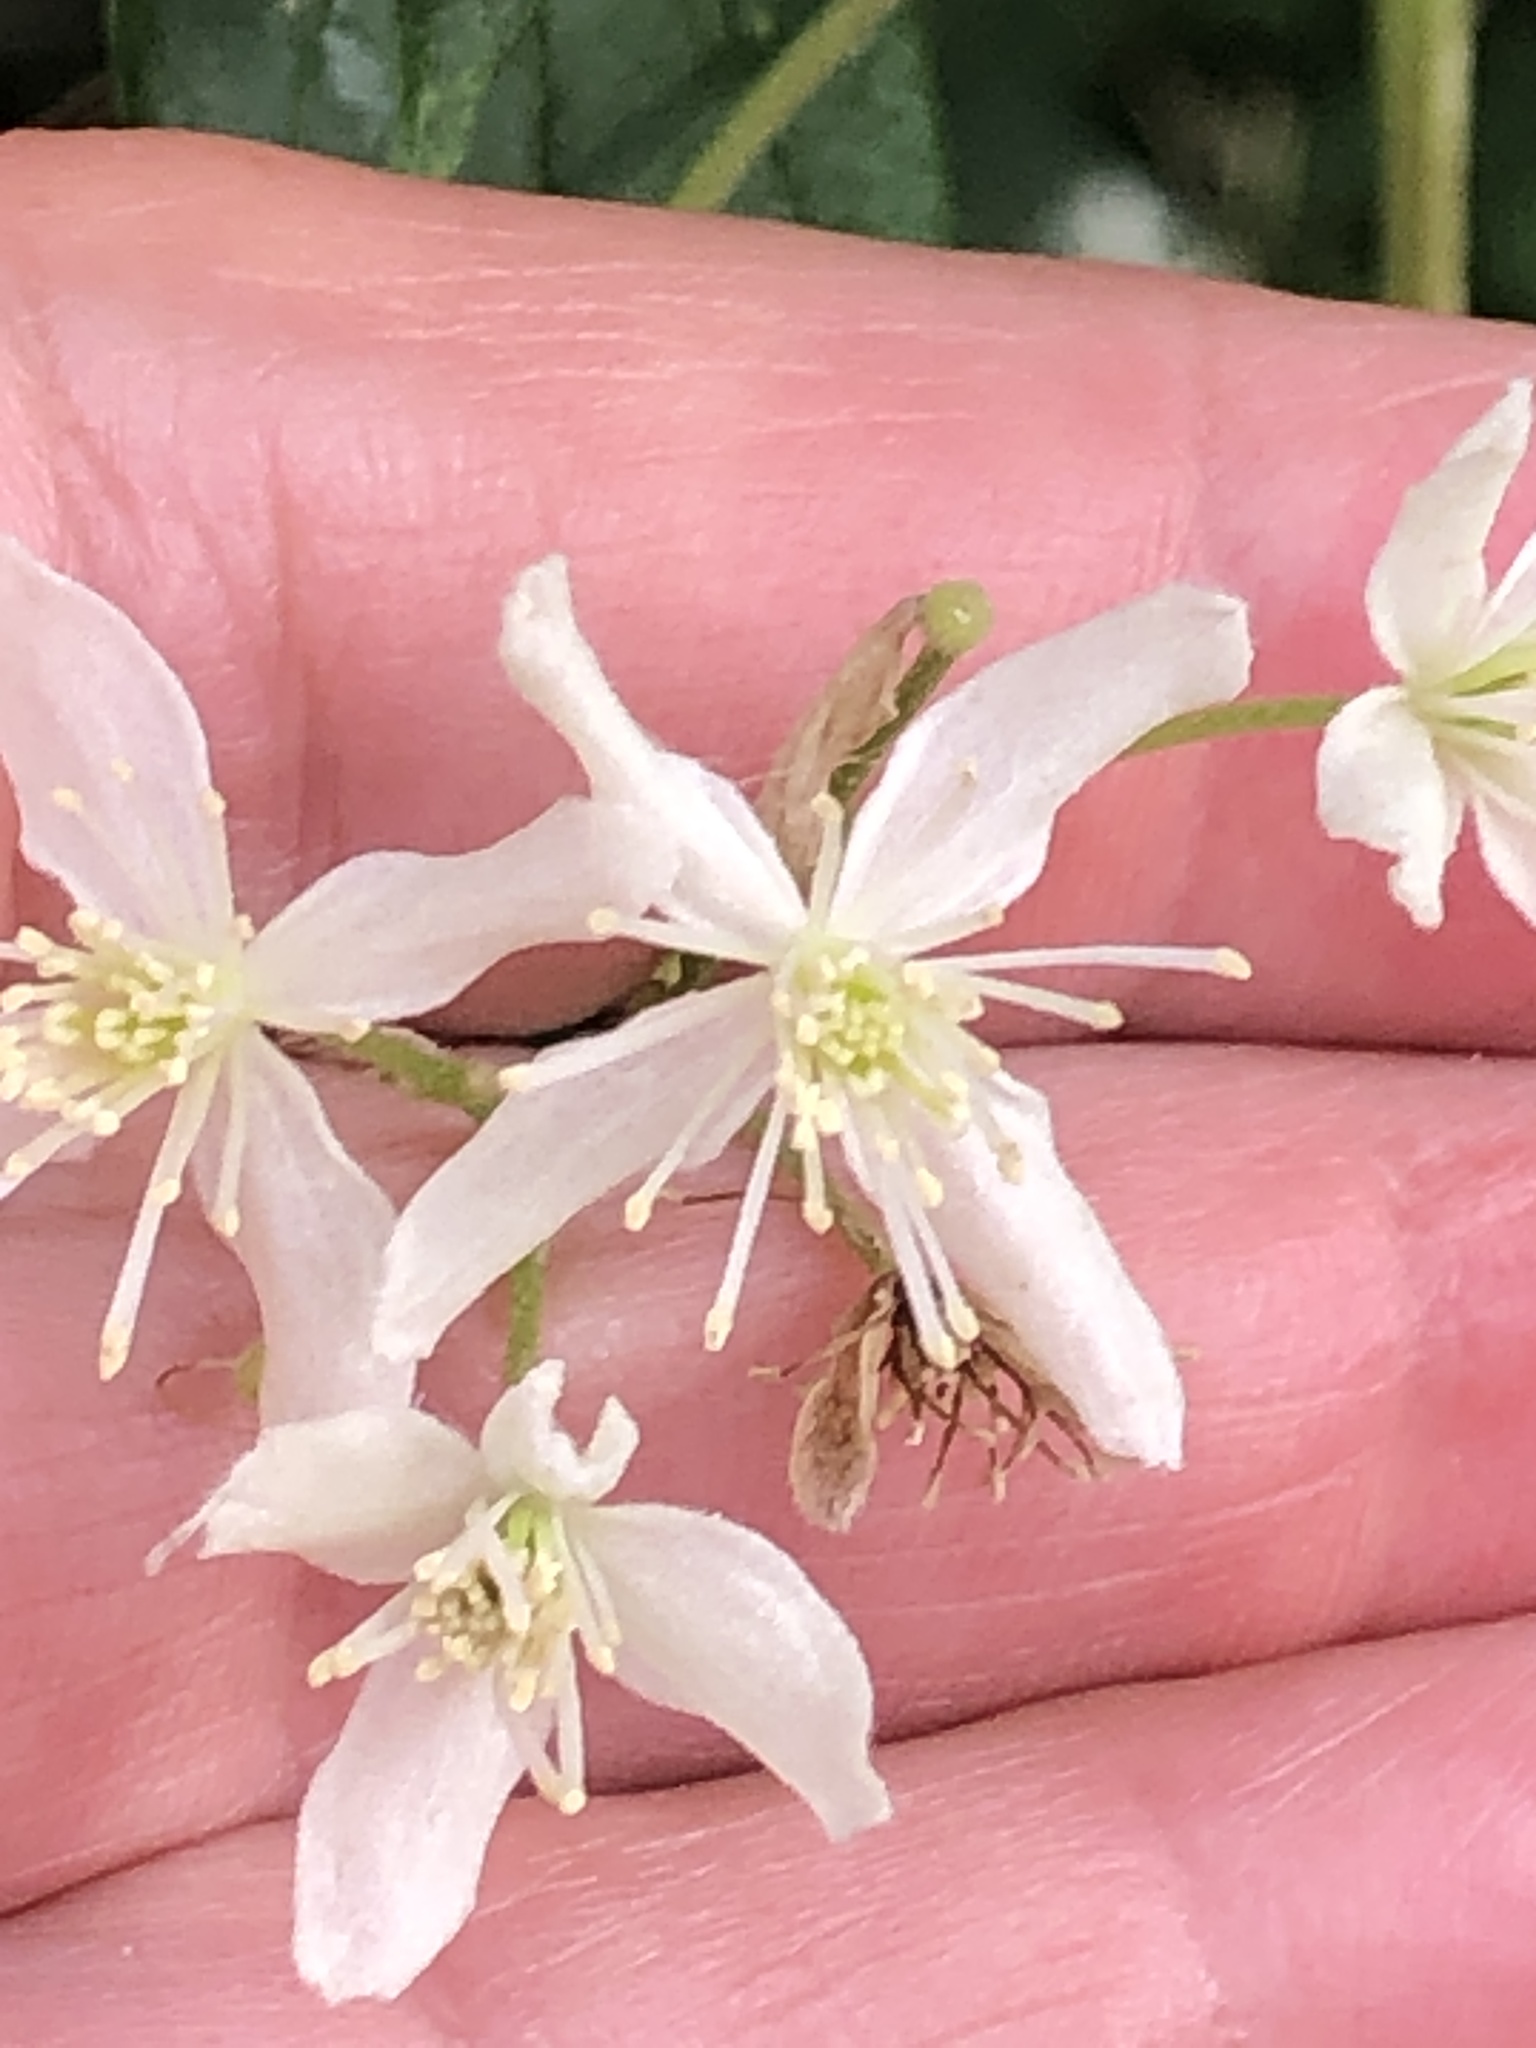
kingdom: Plantae
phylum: Tracheophyta
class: Magnoliopsida
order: Ranunculales
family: Ranunculaceae
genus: Clematis
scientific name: Clematis virginiana
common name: Virgin's-bower
